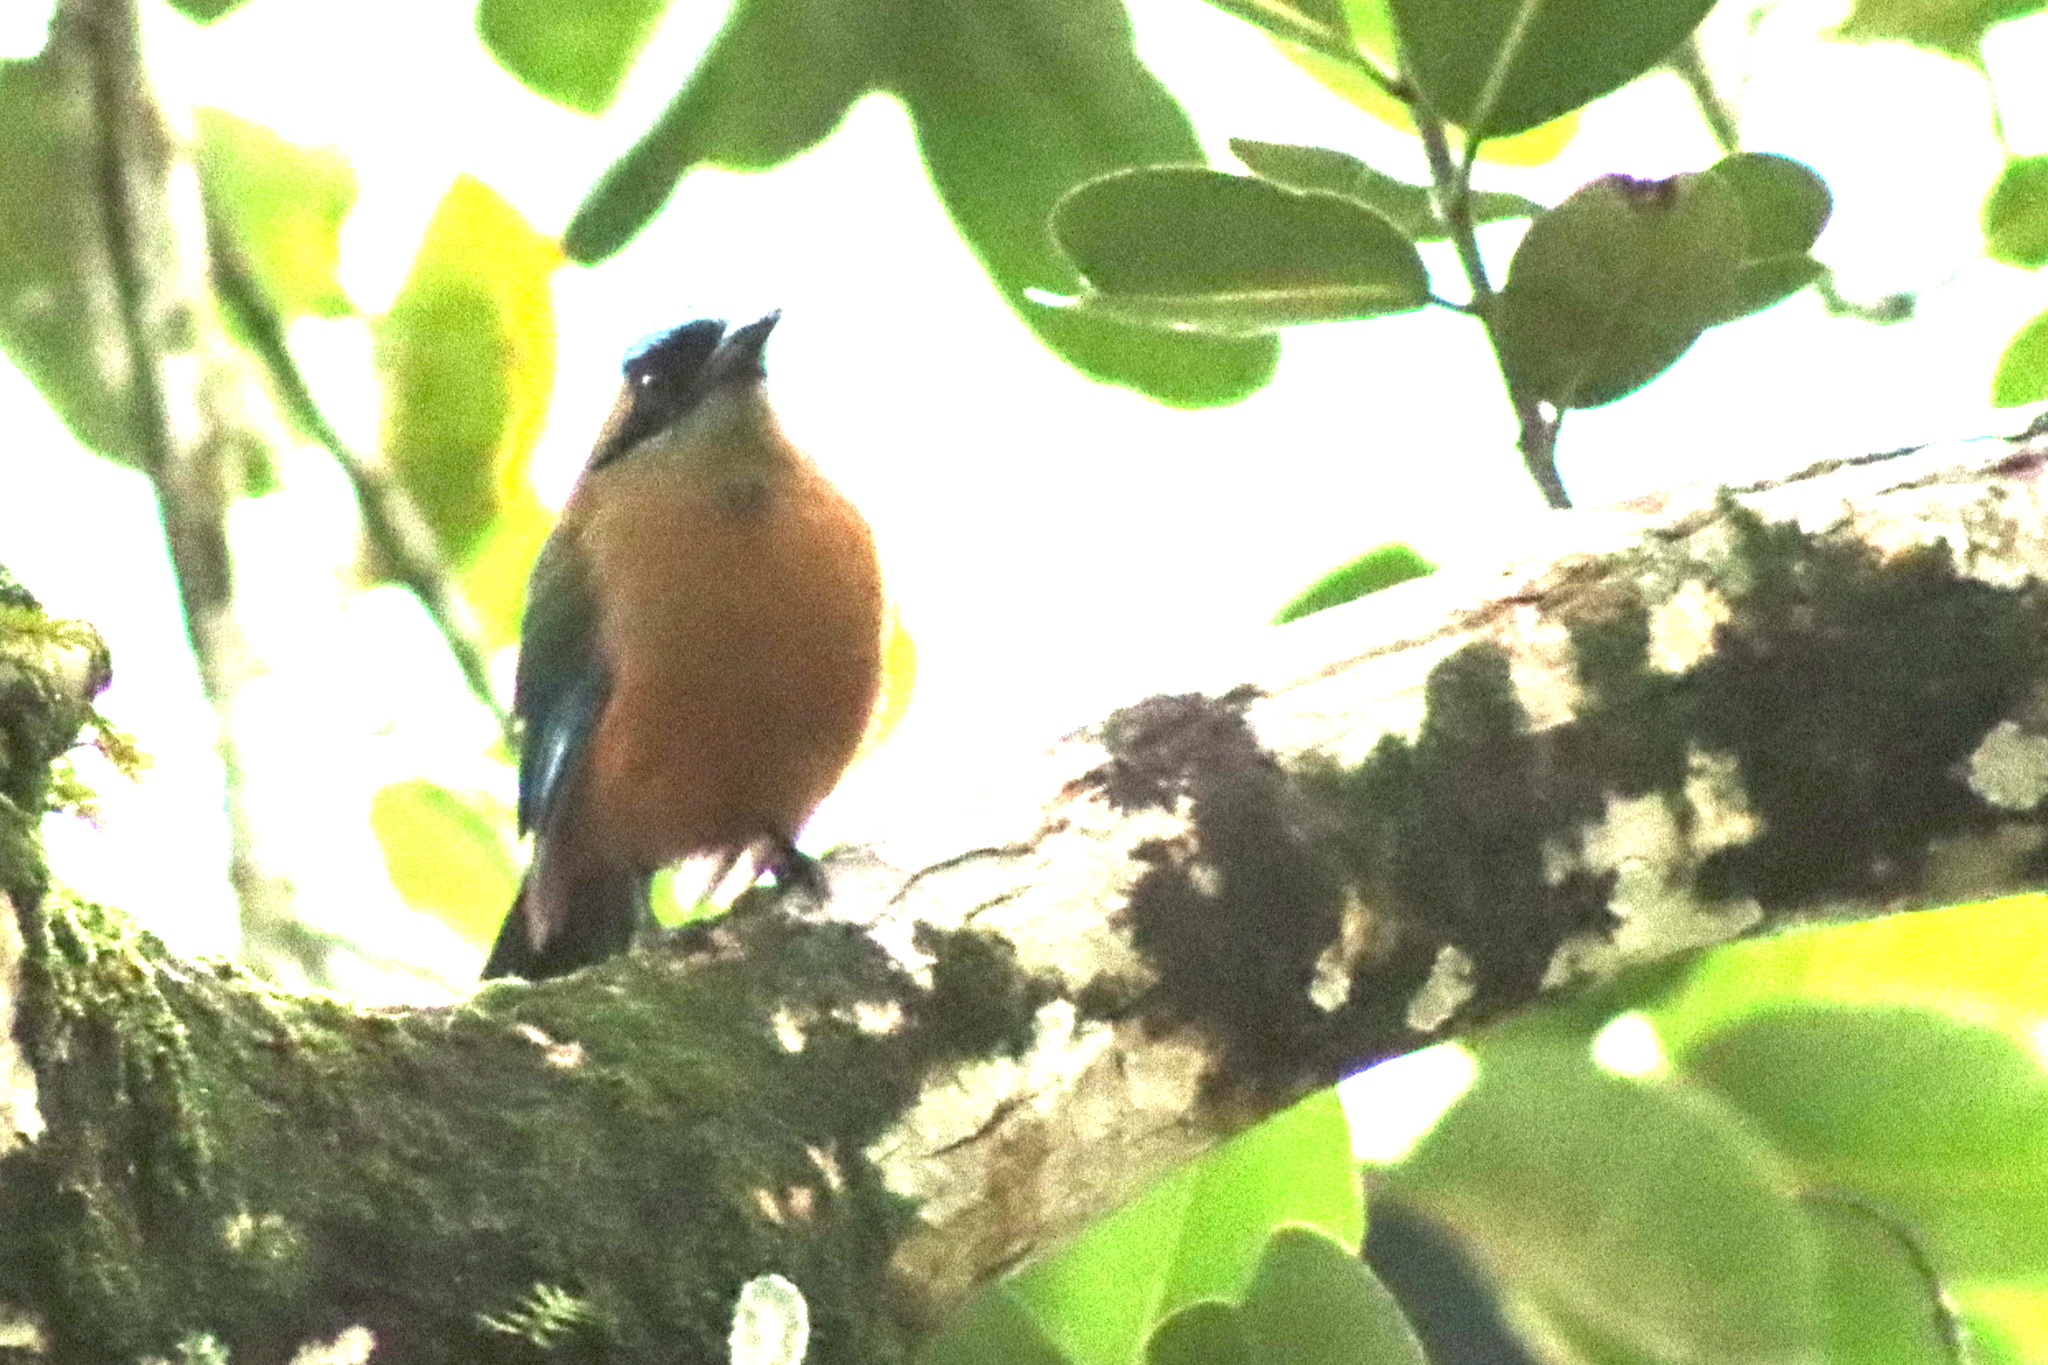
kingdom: Animalia
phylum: Chordata
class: Aves
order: Coraciiformes
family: Momotidae
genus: Momotus
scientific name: Momotus subrufescens
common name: Whooping motmot
